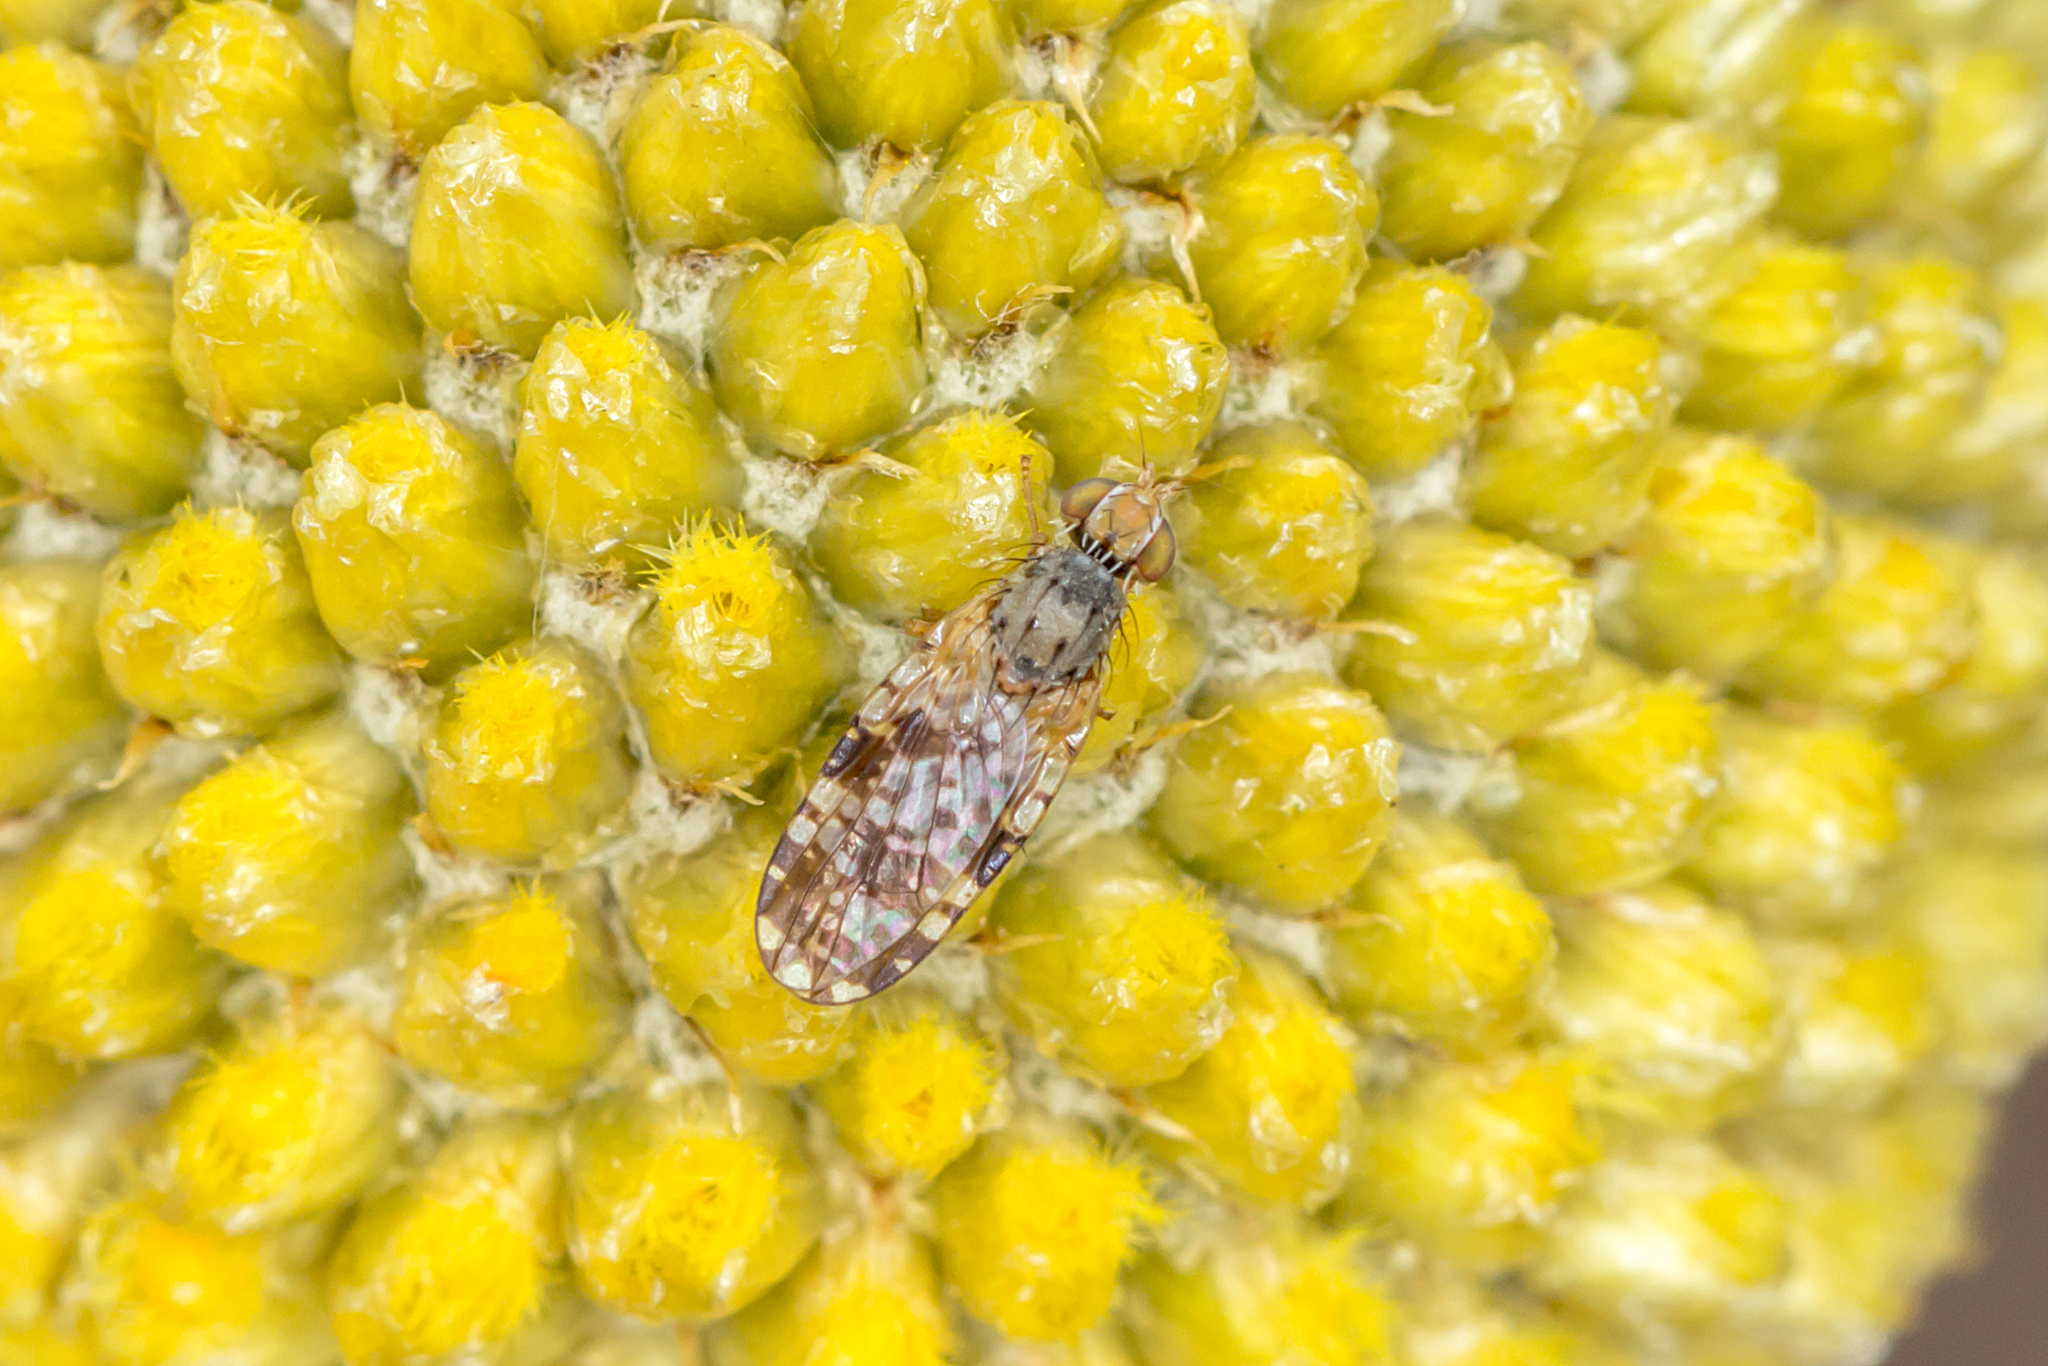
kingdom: Animalia
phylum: Arthropoda
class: Insecta
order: Diptera
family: Tephritidae
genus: Austrotephritis
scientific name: Austrotephritis
